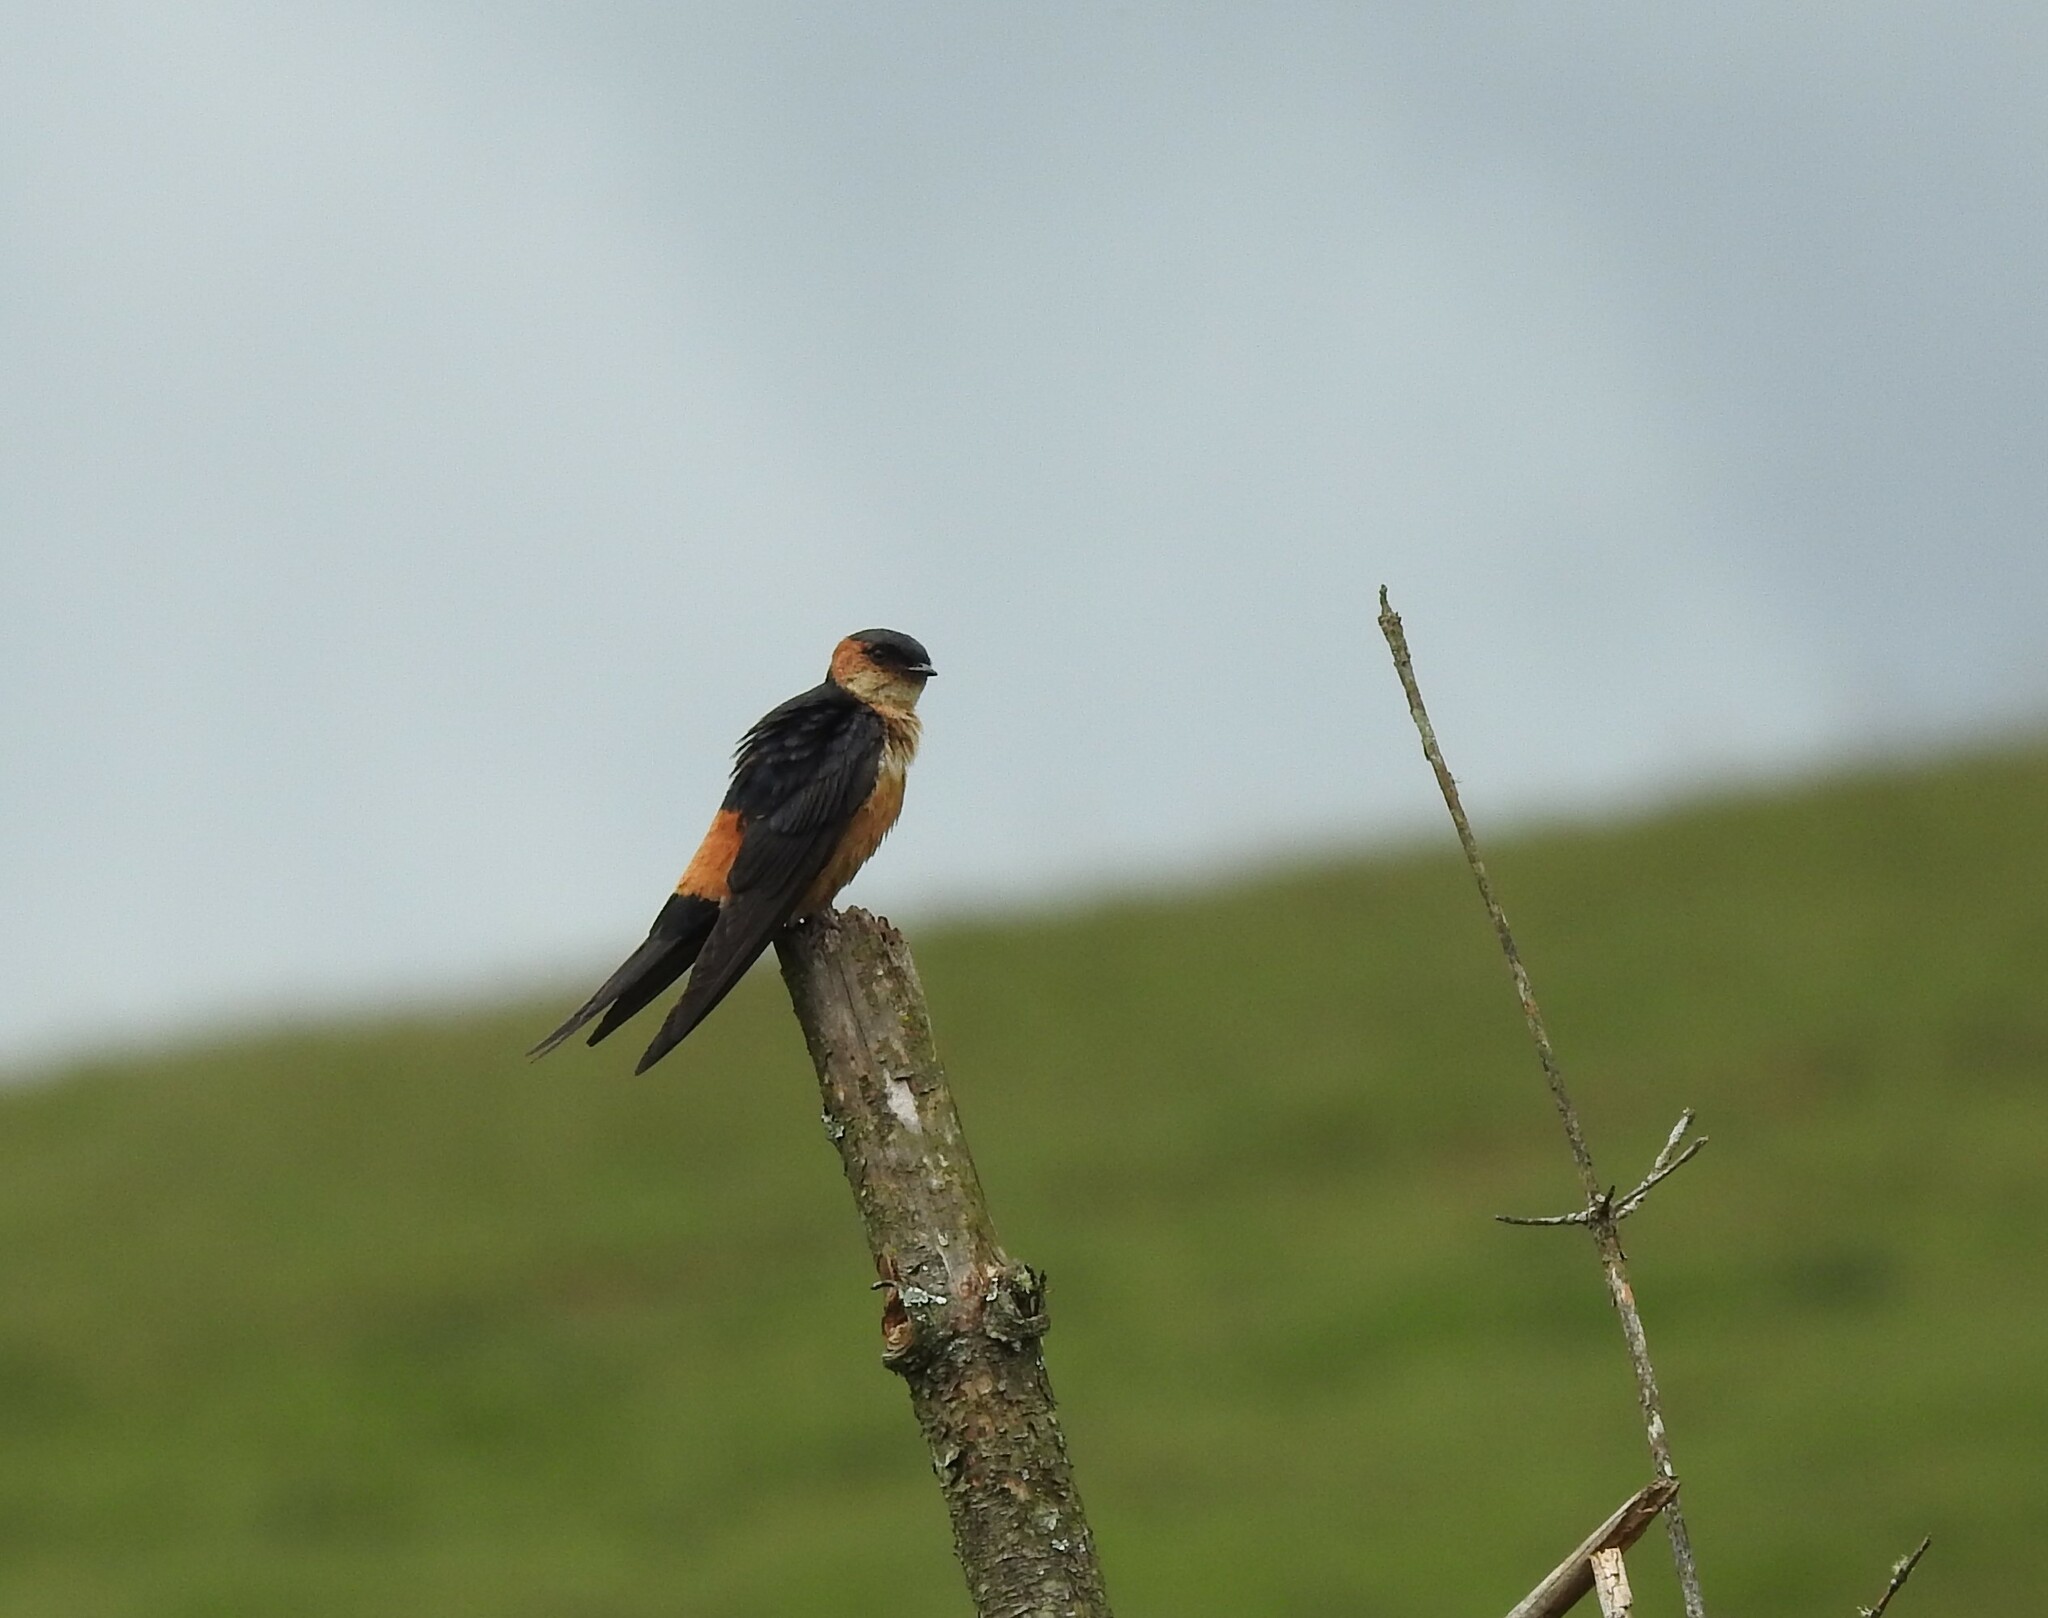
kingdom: Animalia
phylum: Chordata
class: Aves
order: Passeriformes
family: Hirundinidae
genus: Cecropis
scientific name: Cecropis daurica
